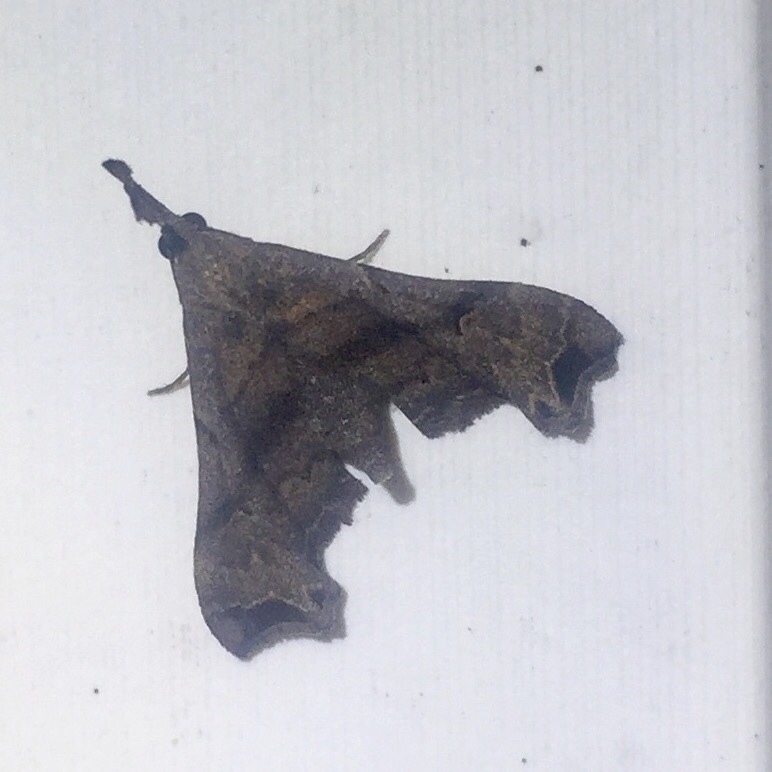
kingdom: Animalia
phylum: Arthropoda
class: Insecta
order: Lepidoptera
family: Erebidae
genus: Palthis
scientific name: Palthis asopialis
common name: Faint-spotted palthis moth
